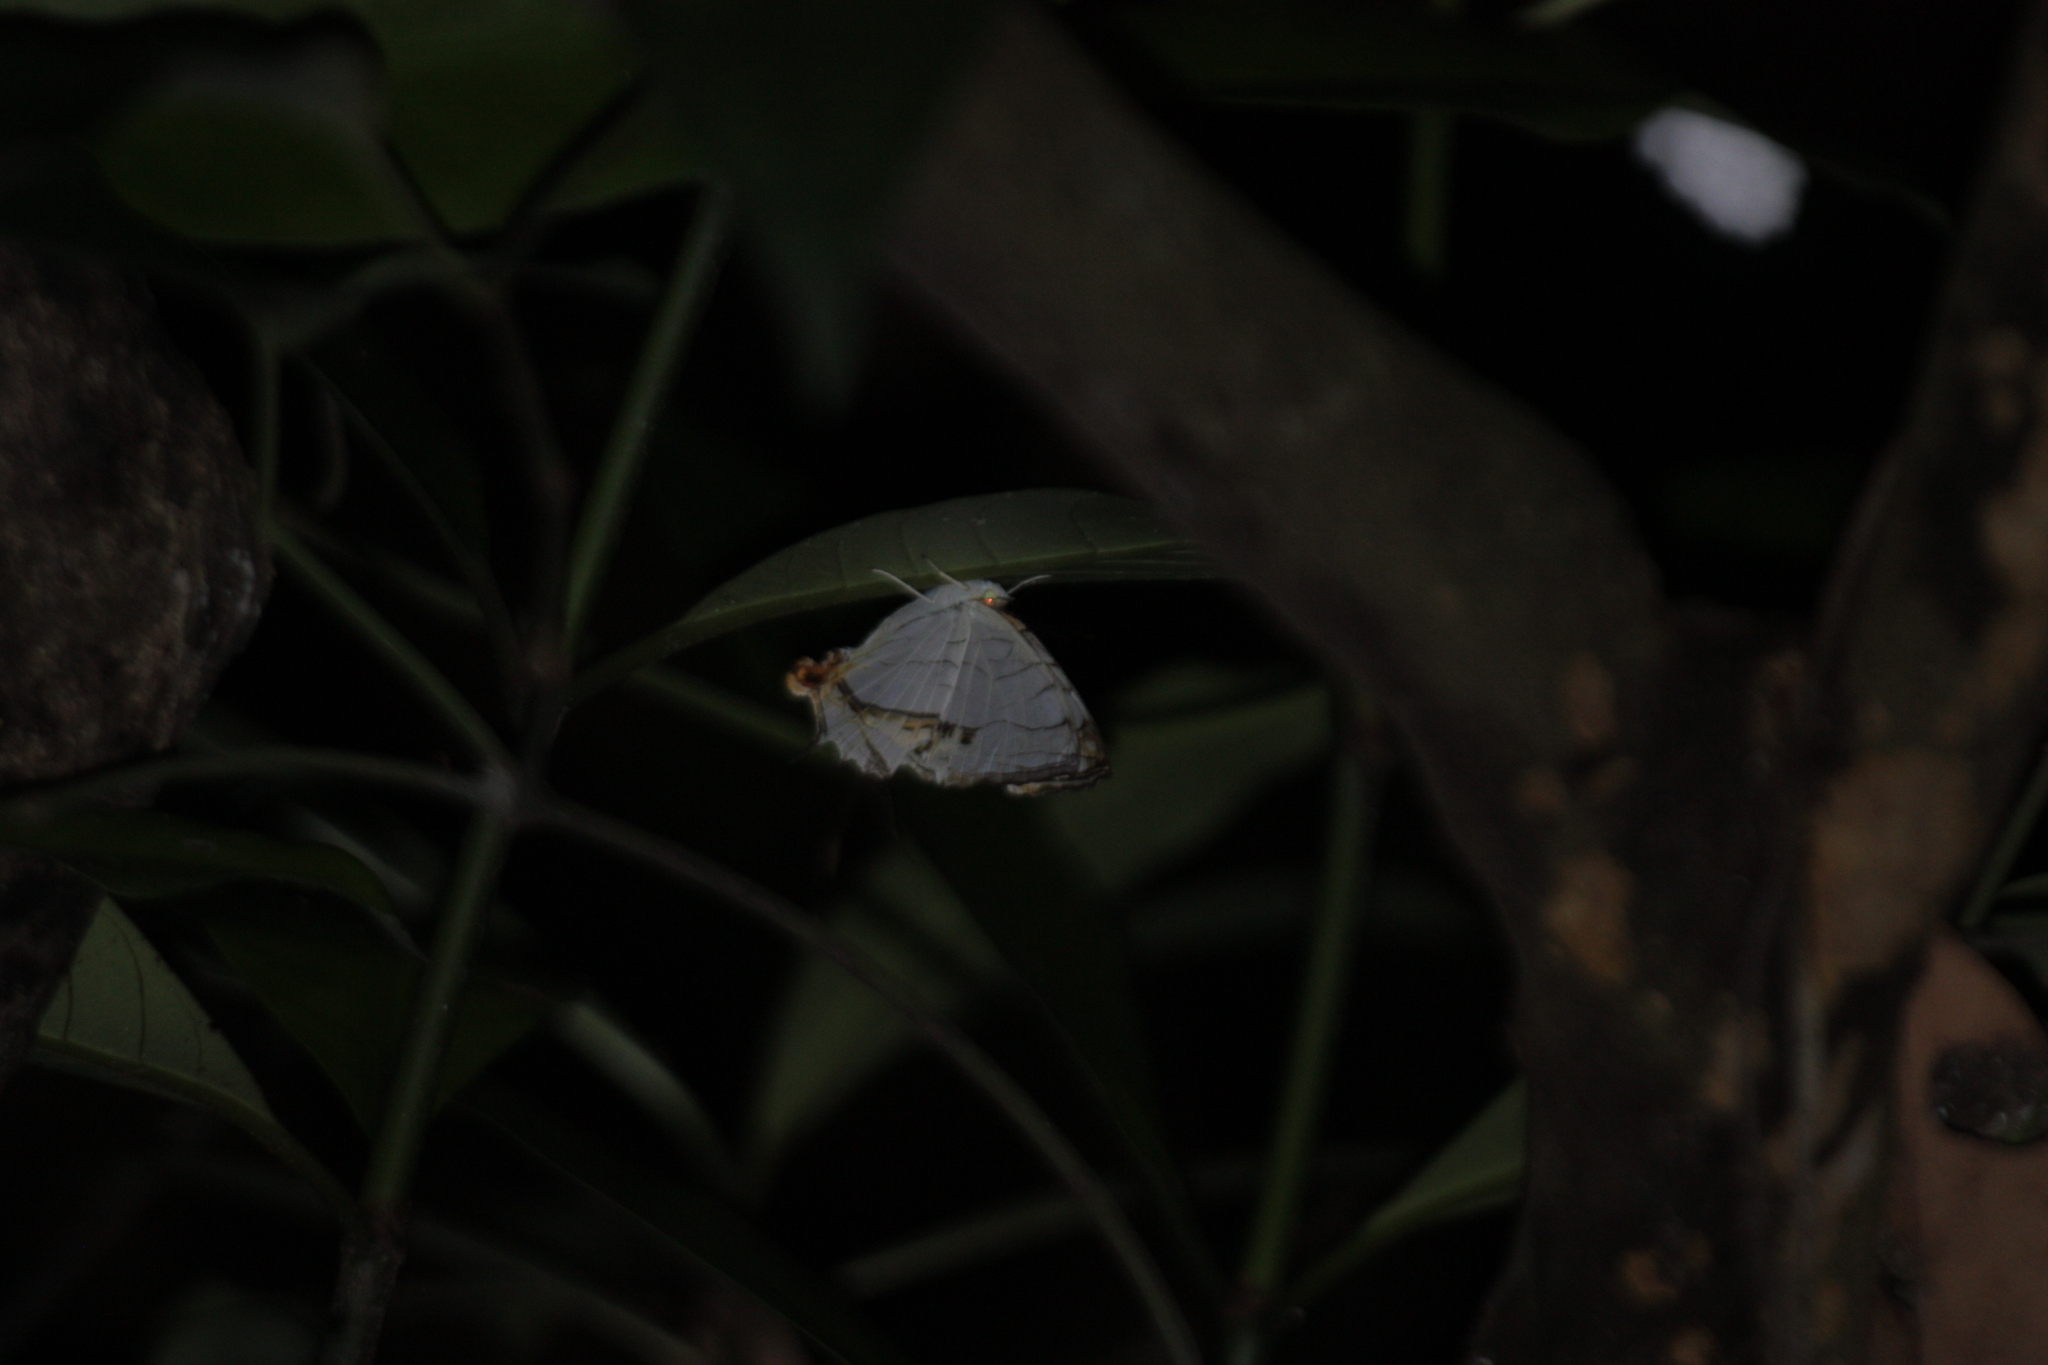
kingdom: Animalia
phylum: Arthropoda
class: Insecta
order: Lepidoptera
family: Nymphalidae
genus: Cyrestis
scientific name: Cyrestis thyodamas
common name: Common mapwing
